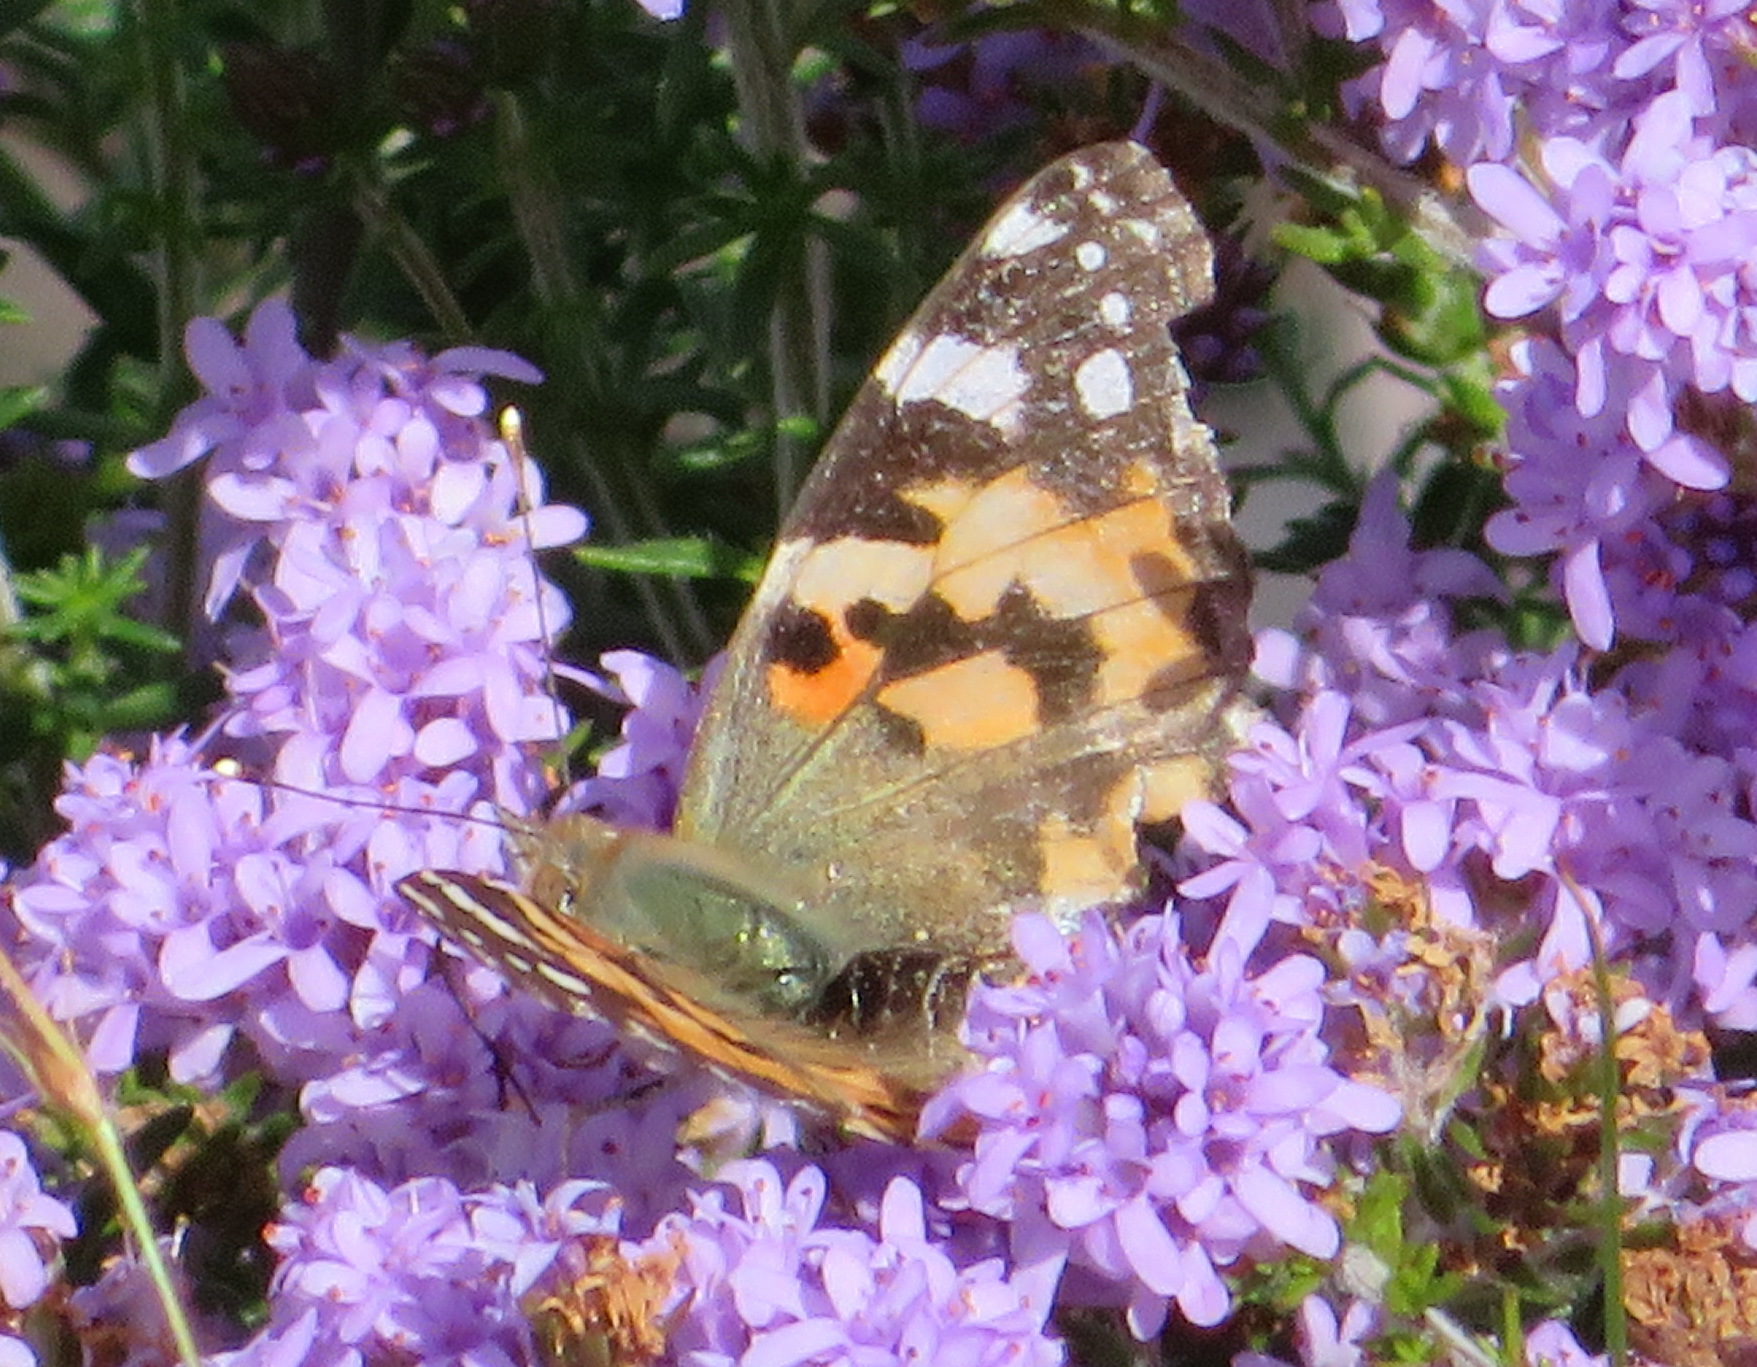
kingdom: Animalia
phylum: Arthropoda
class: Insecta
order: Lepidoptera
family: Nymphalidae
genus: Vanessa
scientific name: Vanessa cardui
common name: Painted lady
